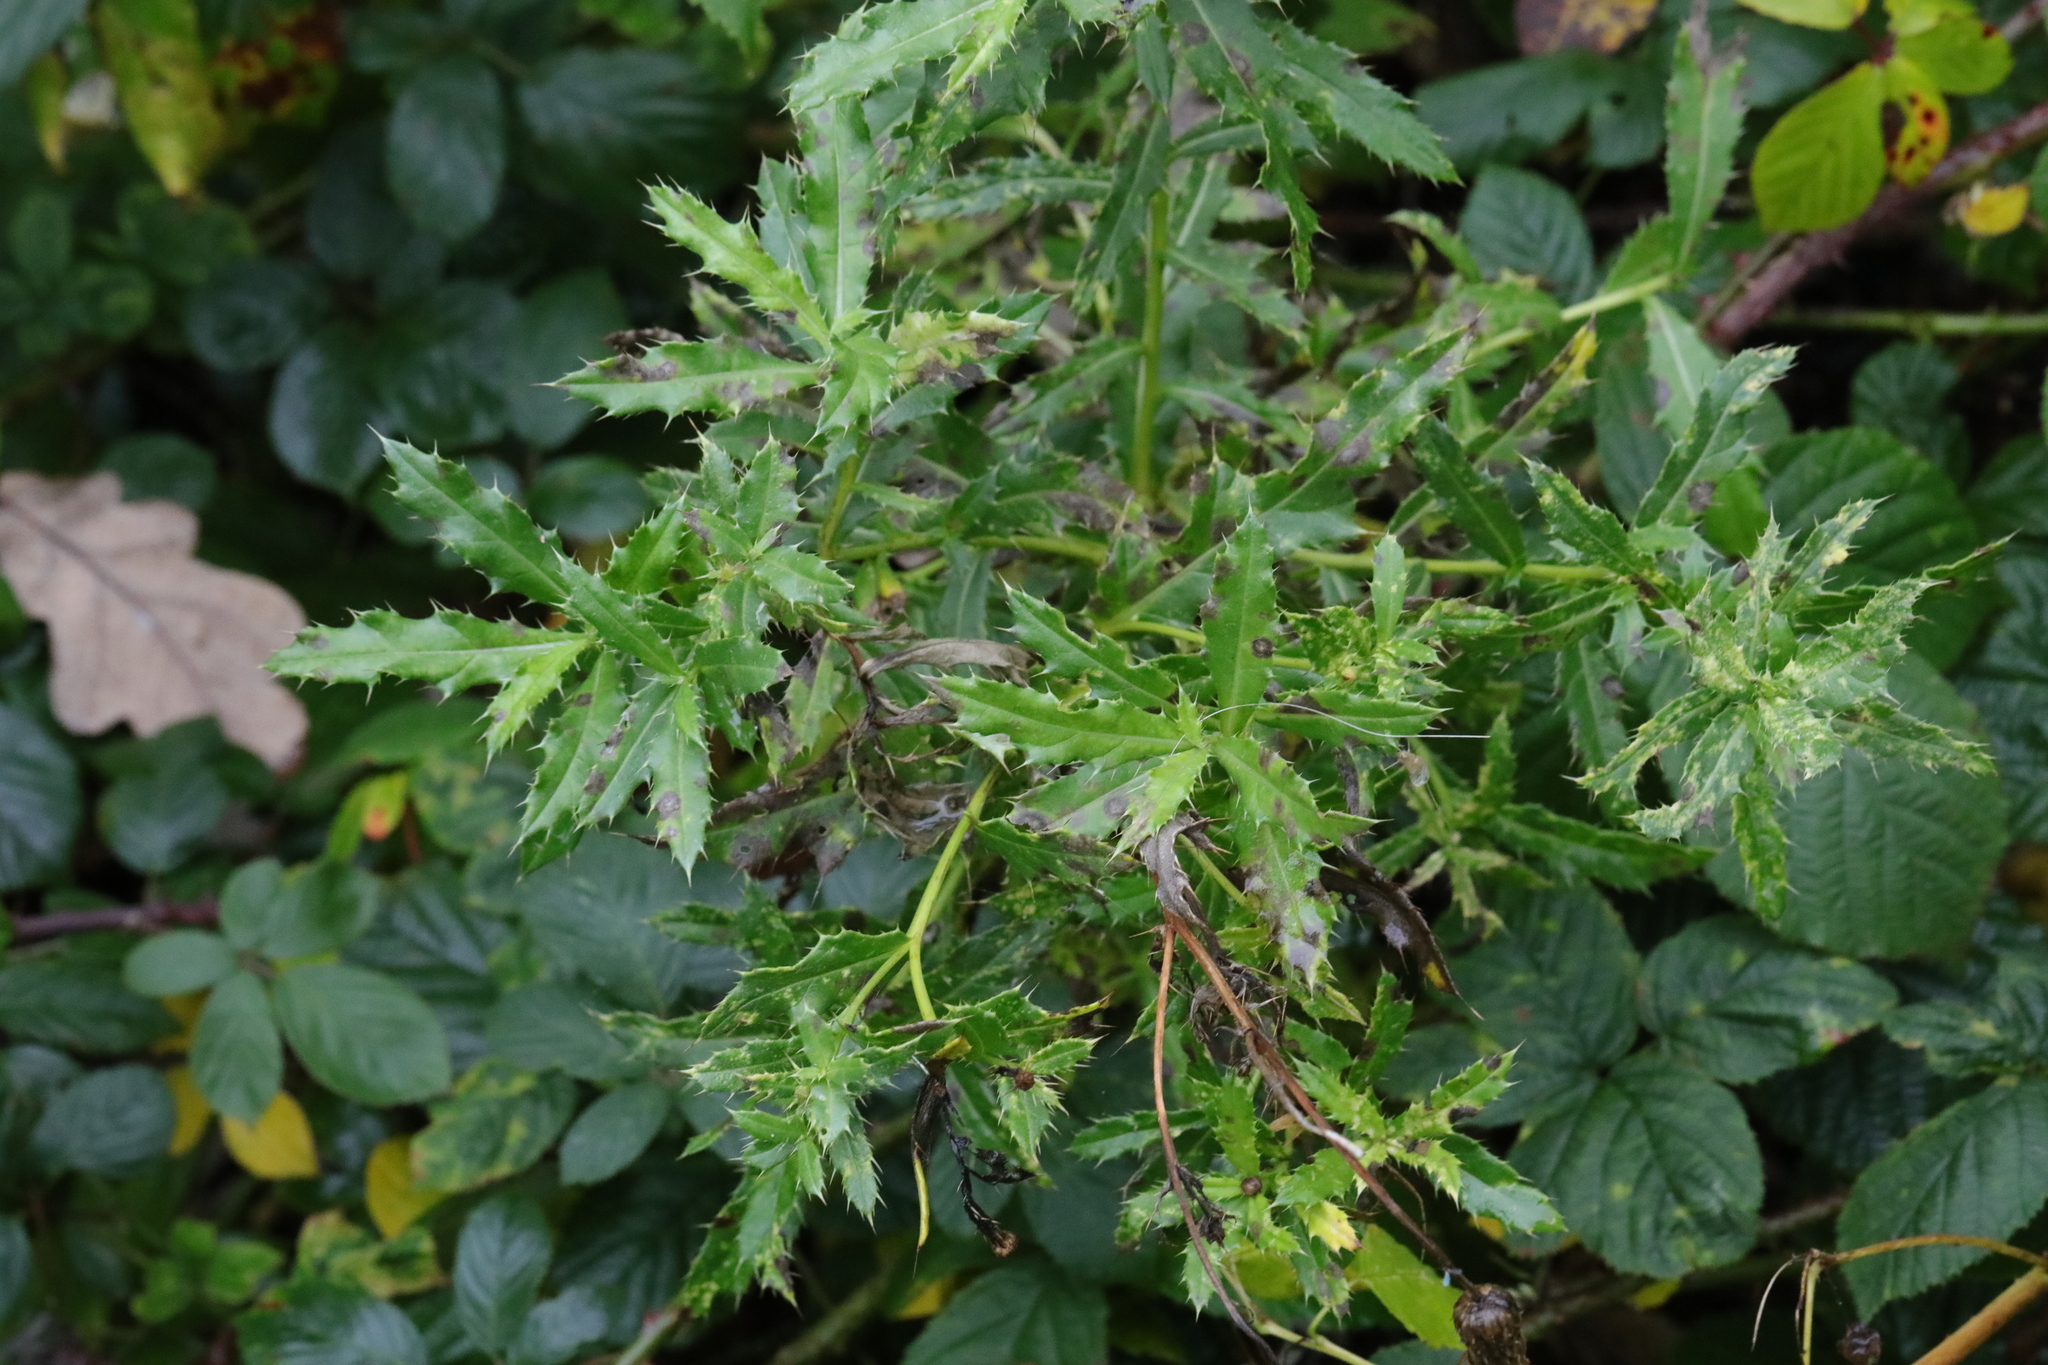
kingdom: Plantae
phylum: Tracheophyta
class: Magnoliopsida
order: Asterales
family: Asteraceae
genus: Cirsium
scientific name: Cirsium arvense
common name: Creeping thistle
